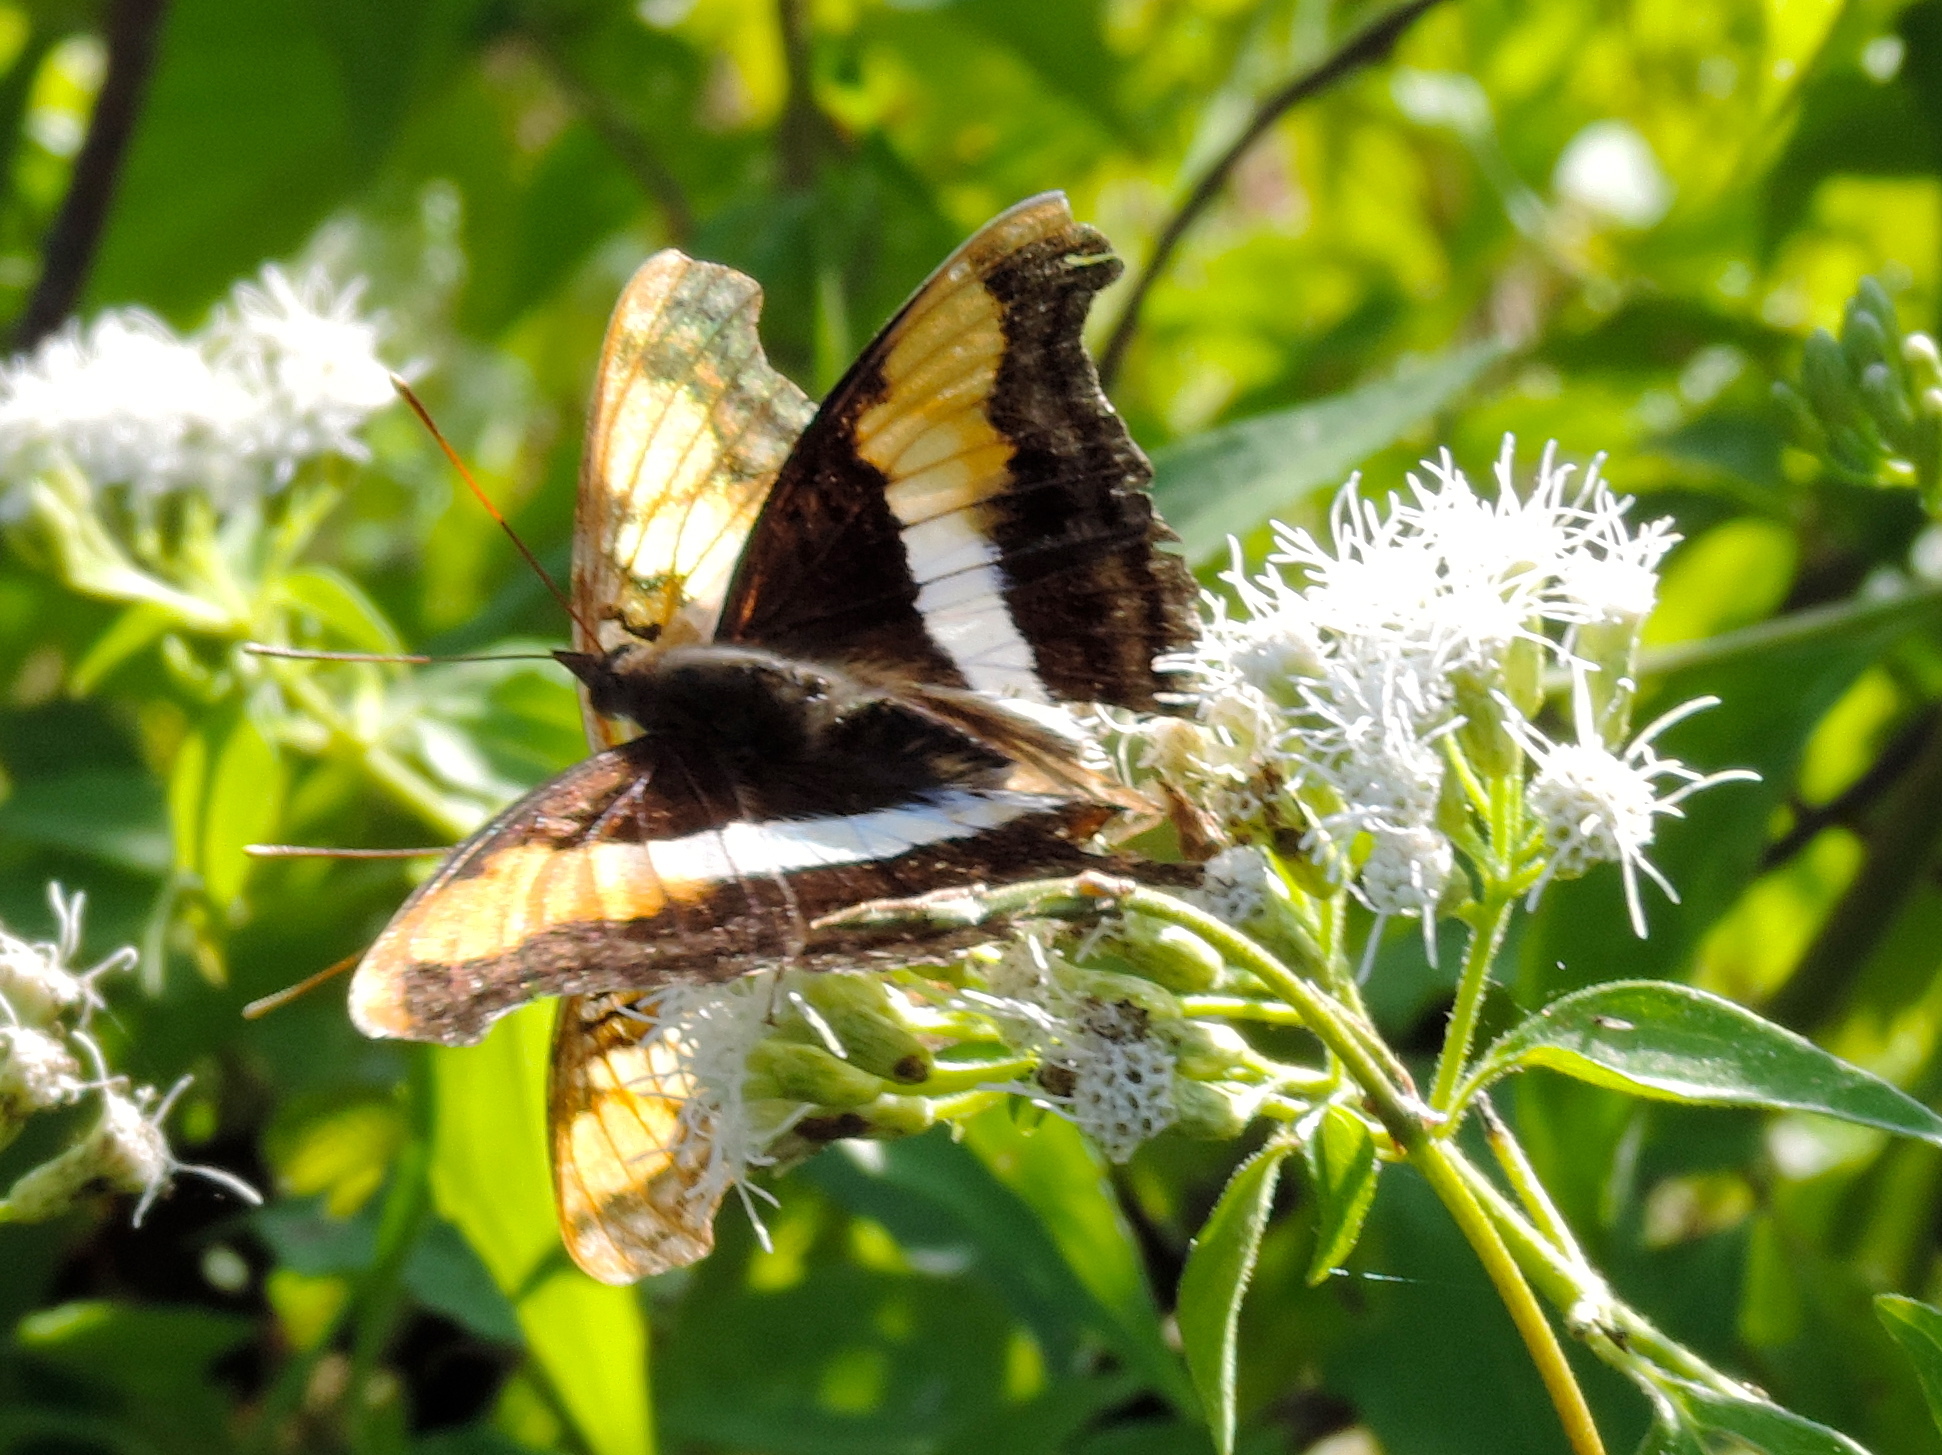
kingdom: Animalia
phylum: Arthropoda
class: Insecta
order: Lepidoptera
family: Nymphalidae
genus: Doxocopa
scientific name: Doxocopa laure
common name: Silver emperor
